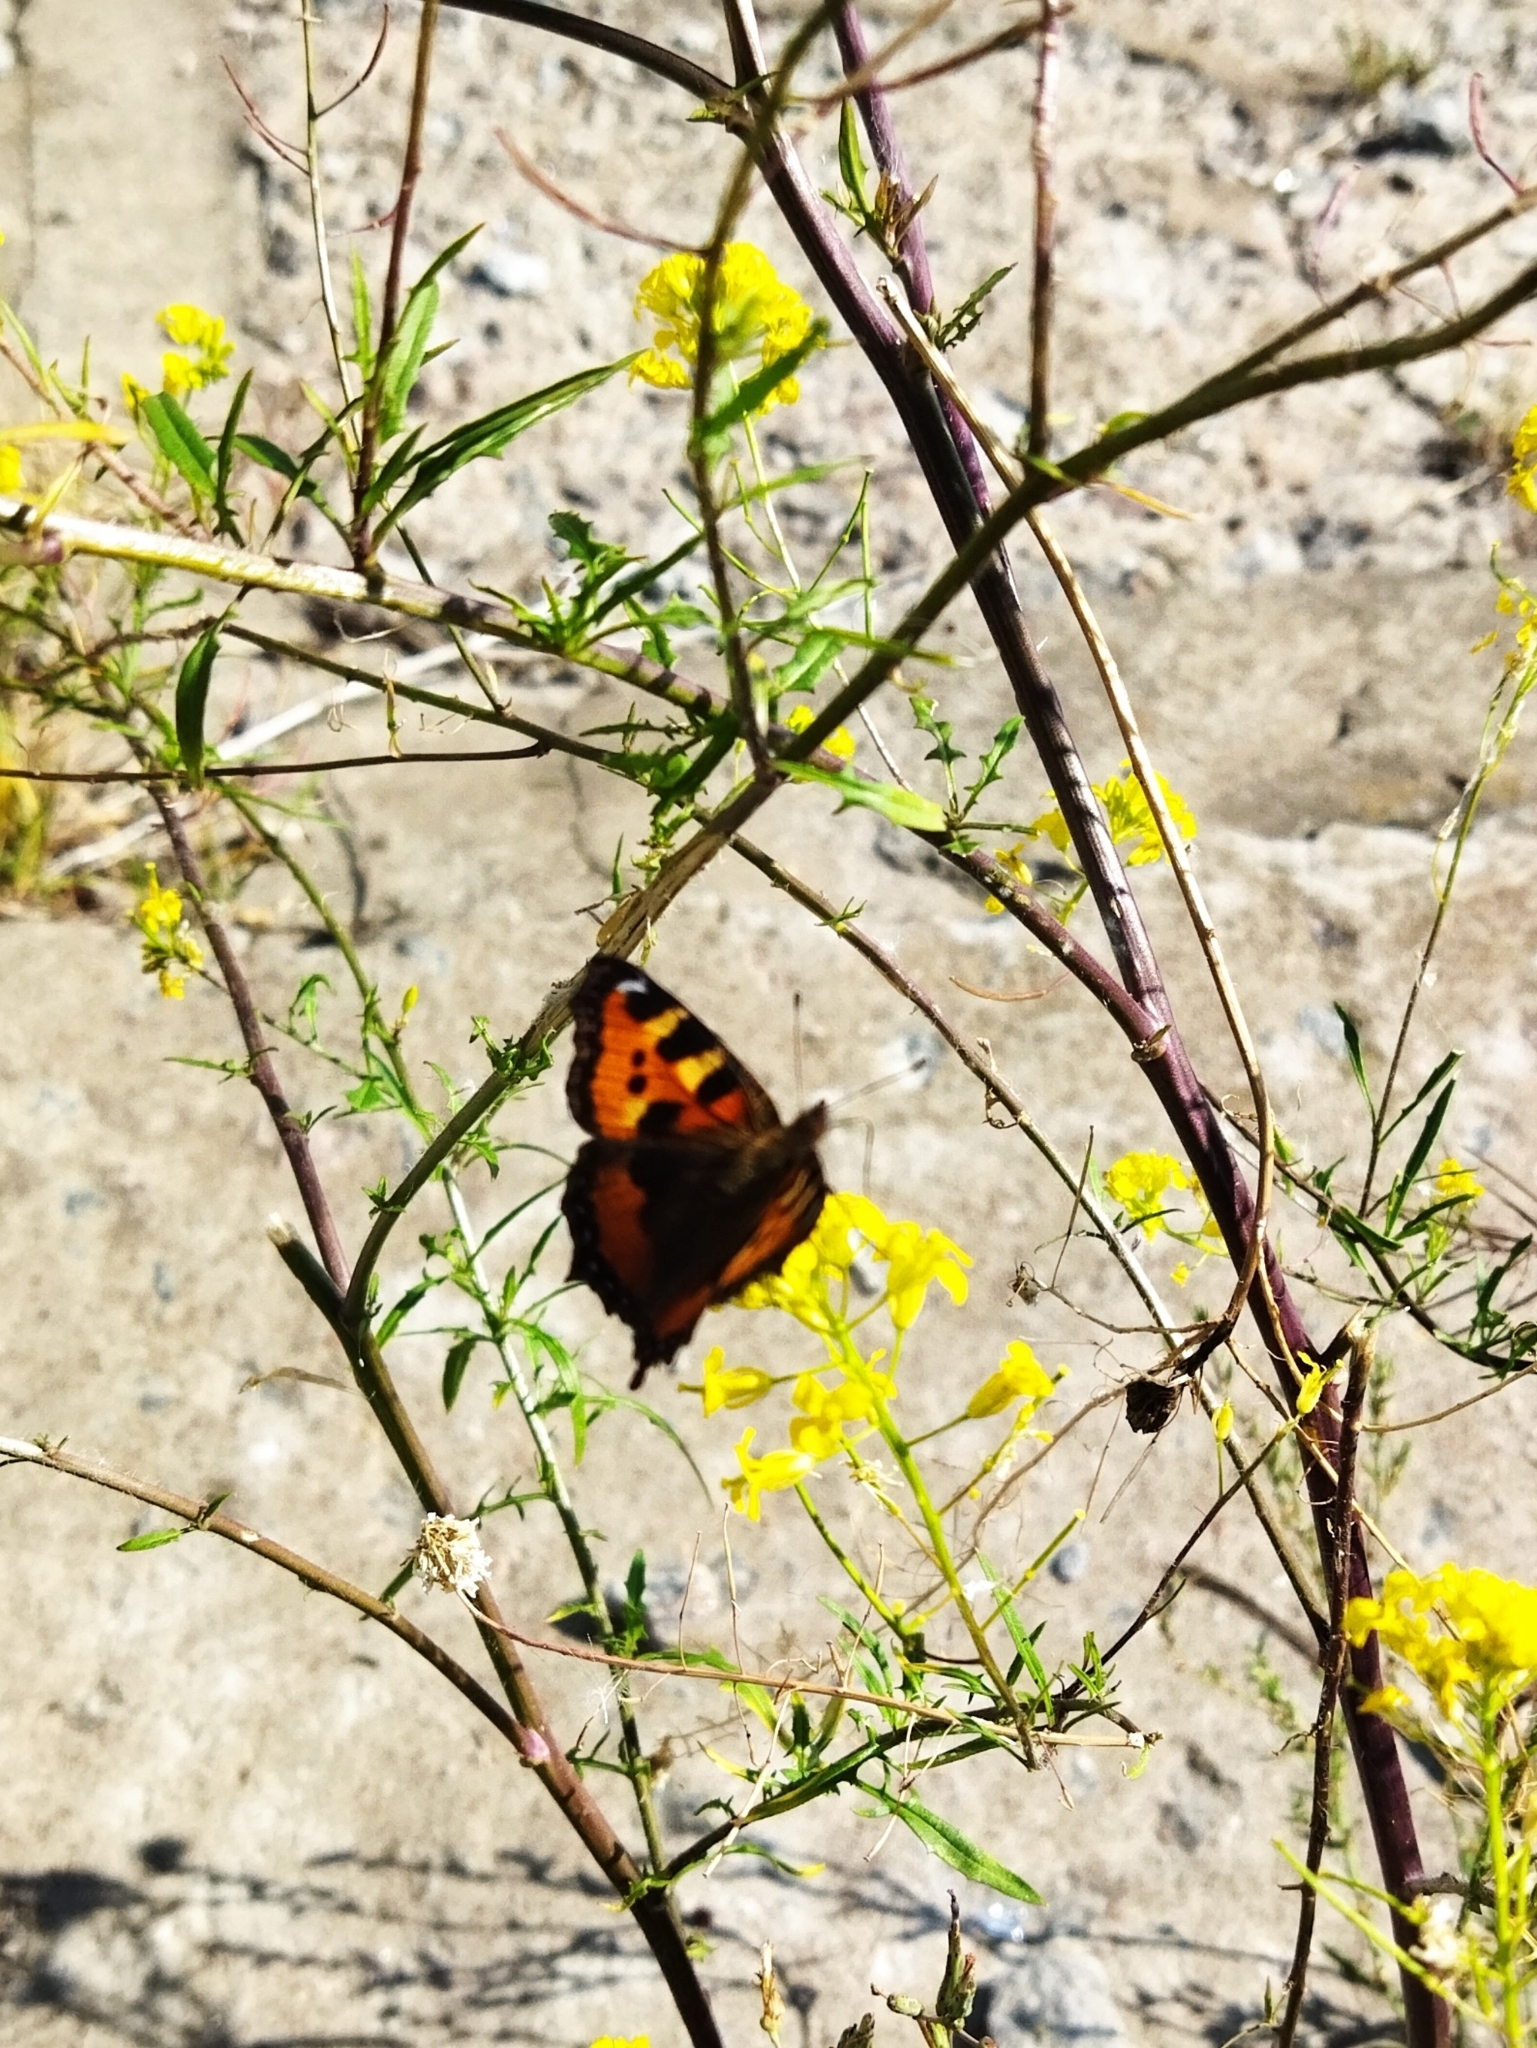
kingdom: Animalia
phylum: Arthropoda
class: Insecta
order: Lepidoptera
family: Nymphalidae
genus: Aglais
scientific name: Aglais urticae
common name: Small tortoiseshell
